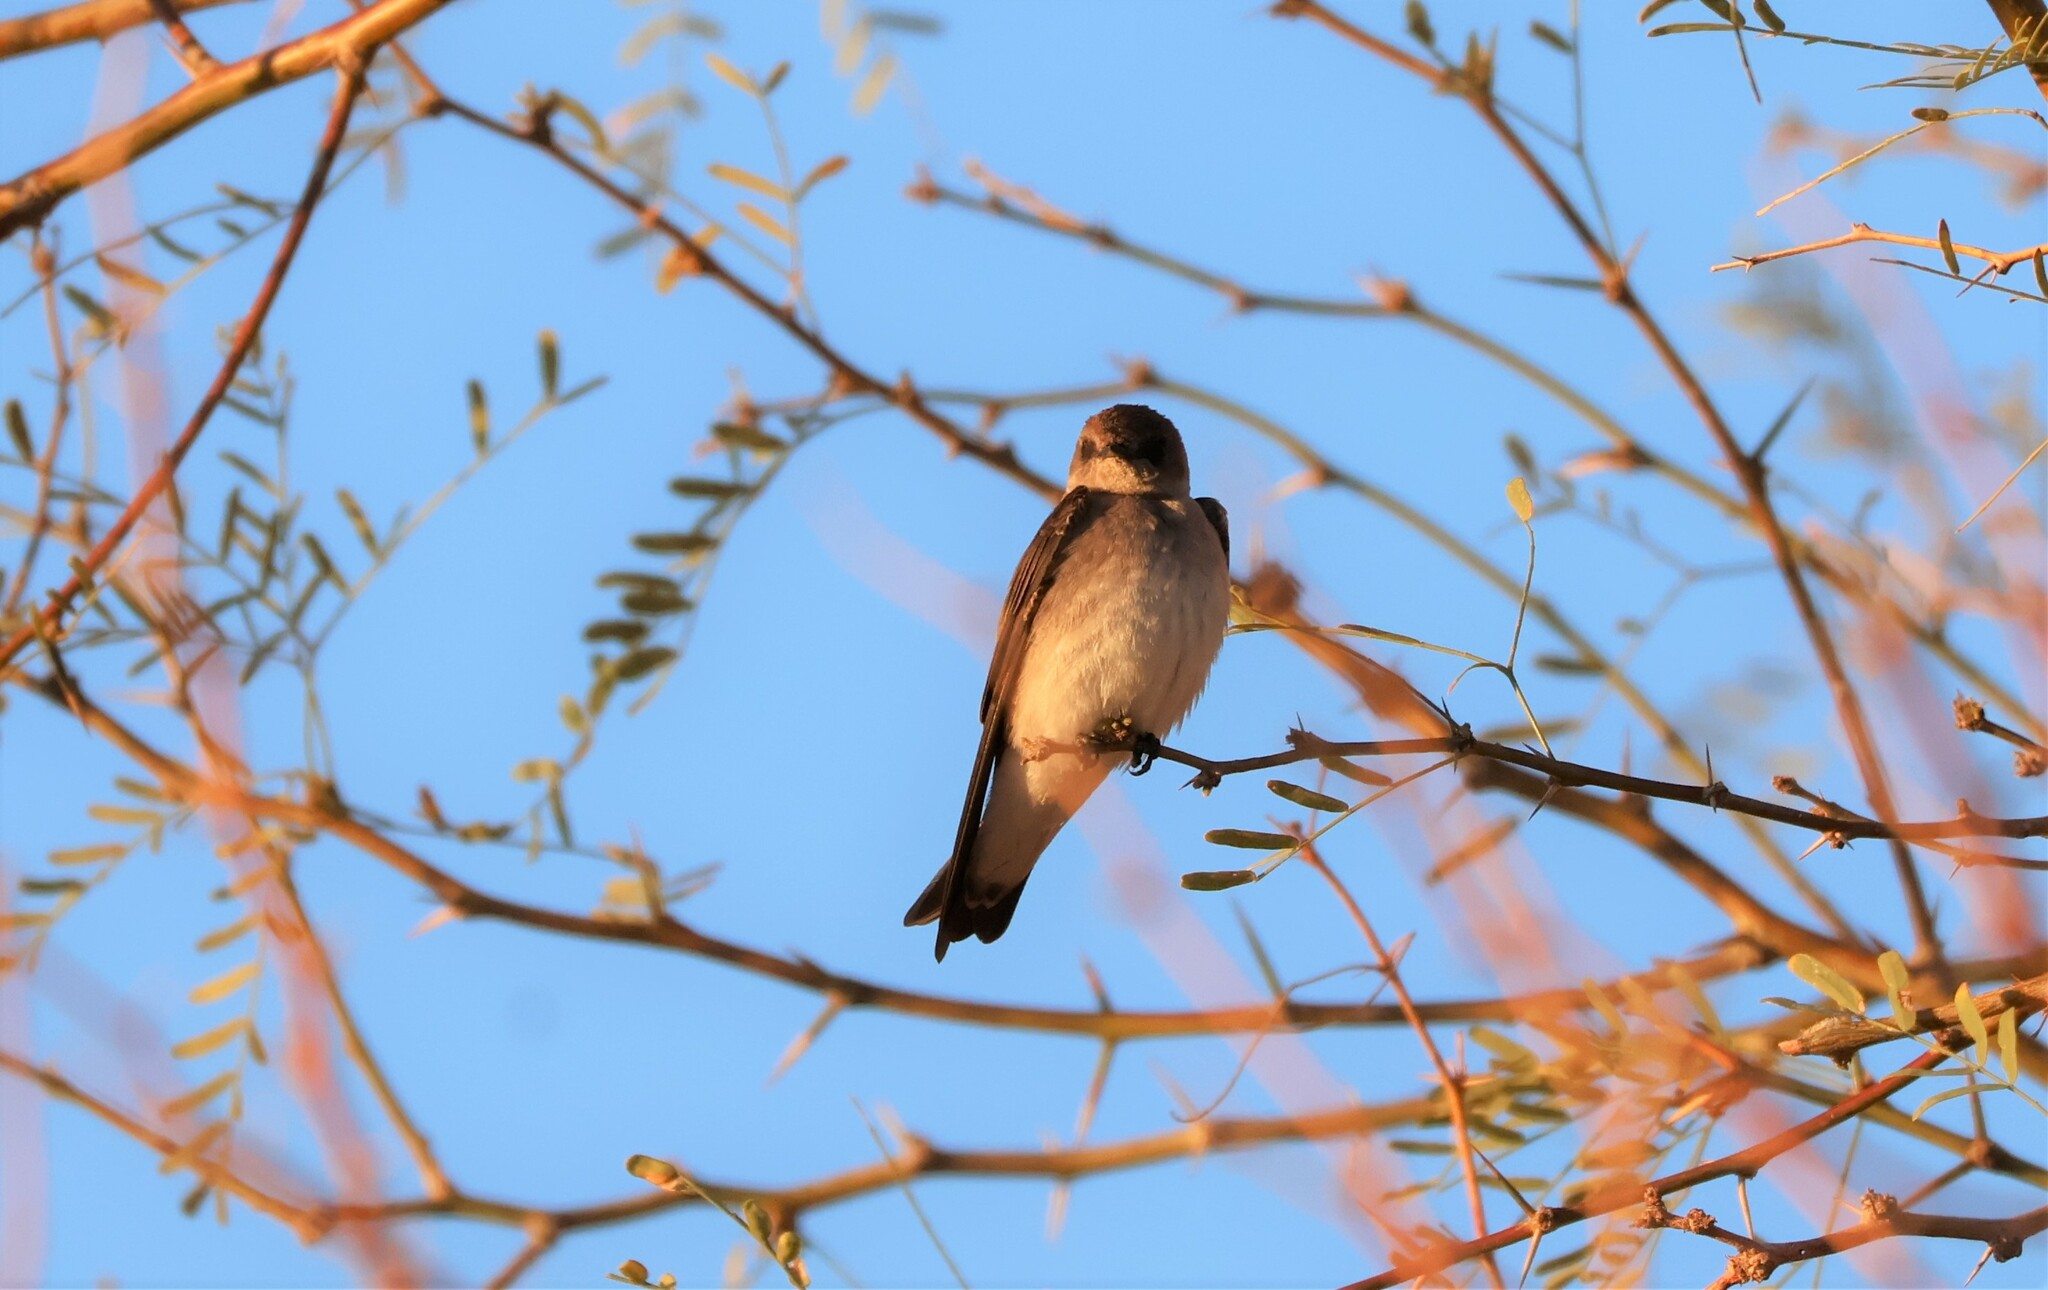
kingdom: Animalia
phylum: Chordata
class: Aves
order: Passeriformes
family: Hirundinidae
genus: Stelgidopteryx
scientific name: Stelgidopteryx serripennis
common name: Northern rough-winged swallow
